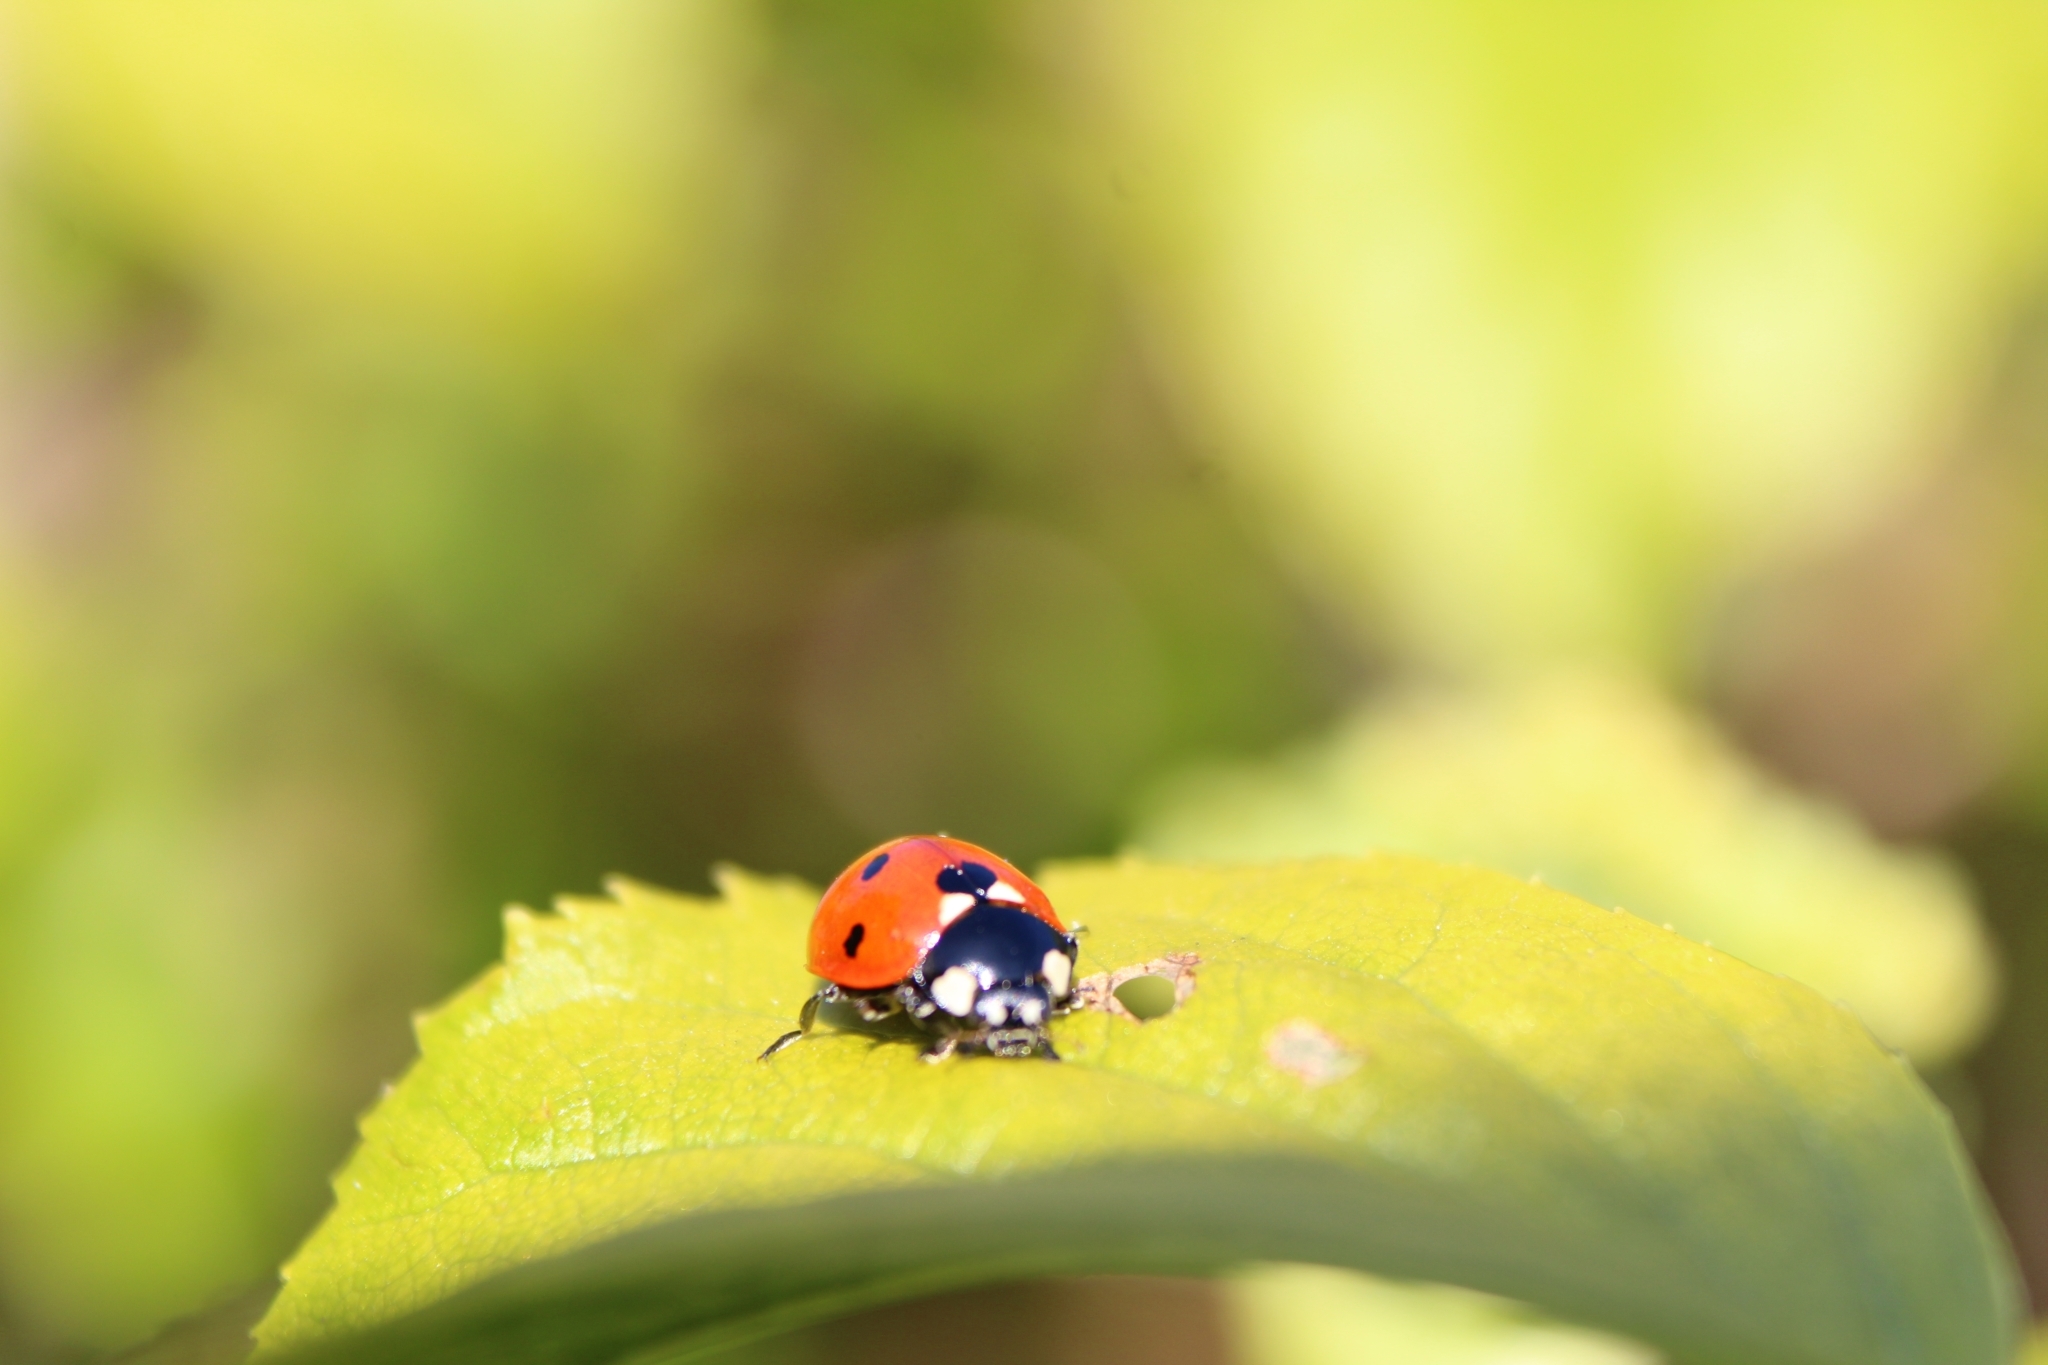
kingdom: Animalia
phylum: Arthropoda
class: Insecta
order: Coleoptera
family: Coccinellidae
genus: Coccinella
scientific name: Coccinella septempunctata
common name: Sevenspotted lady beetle
